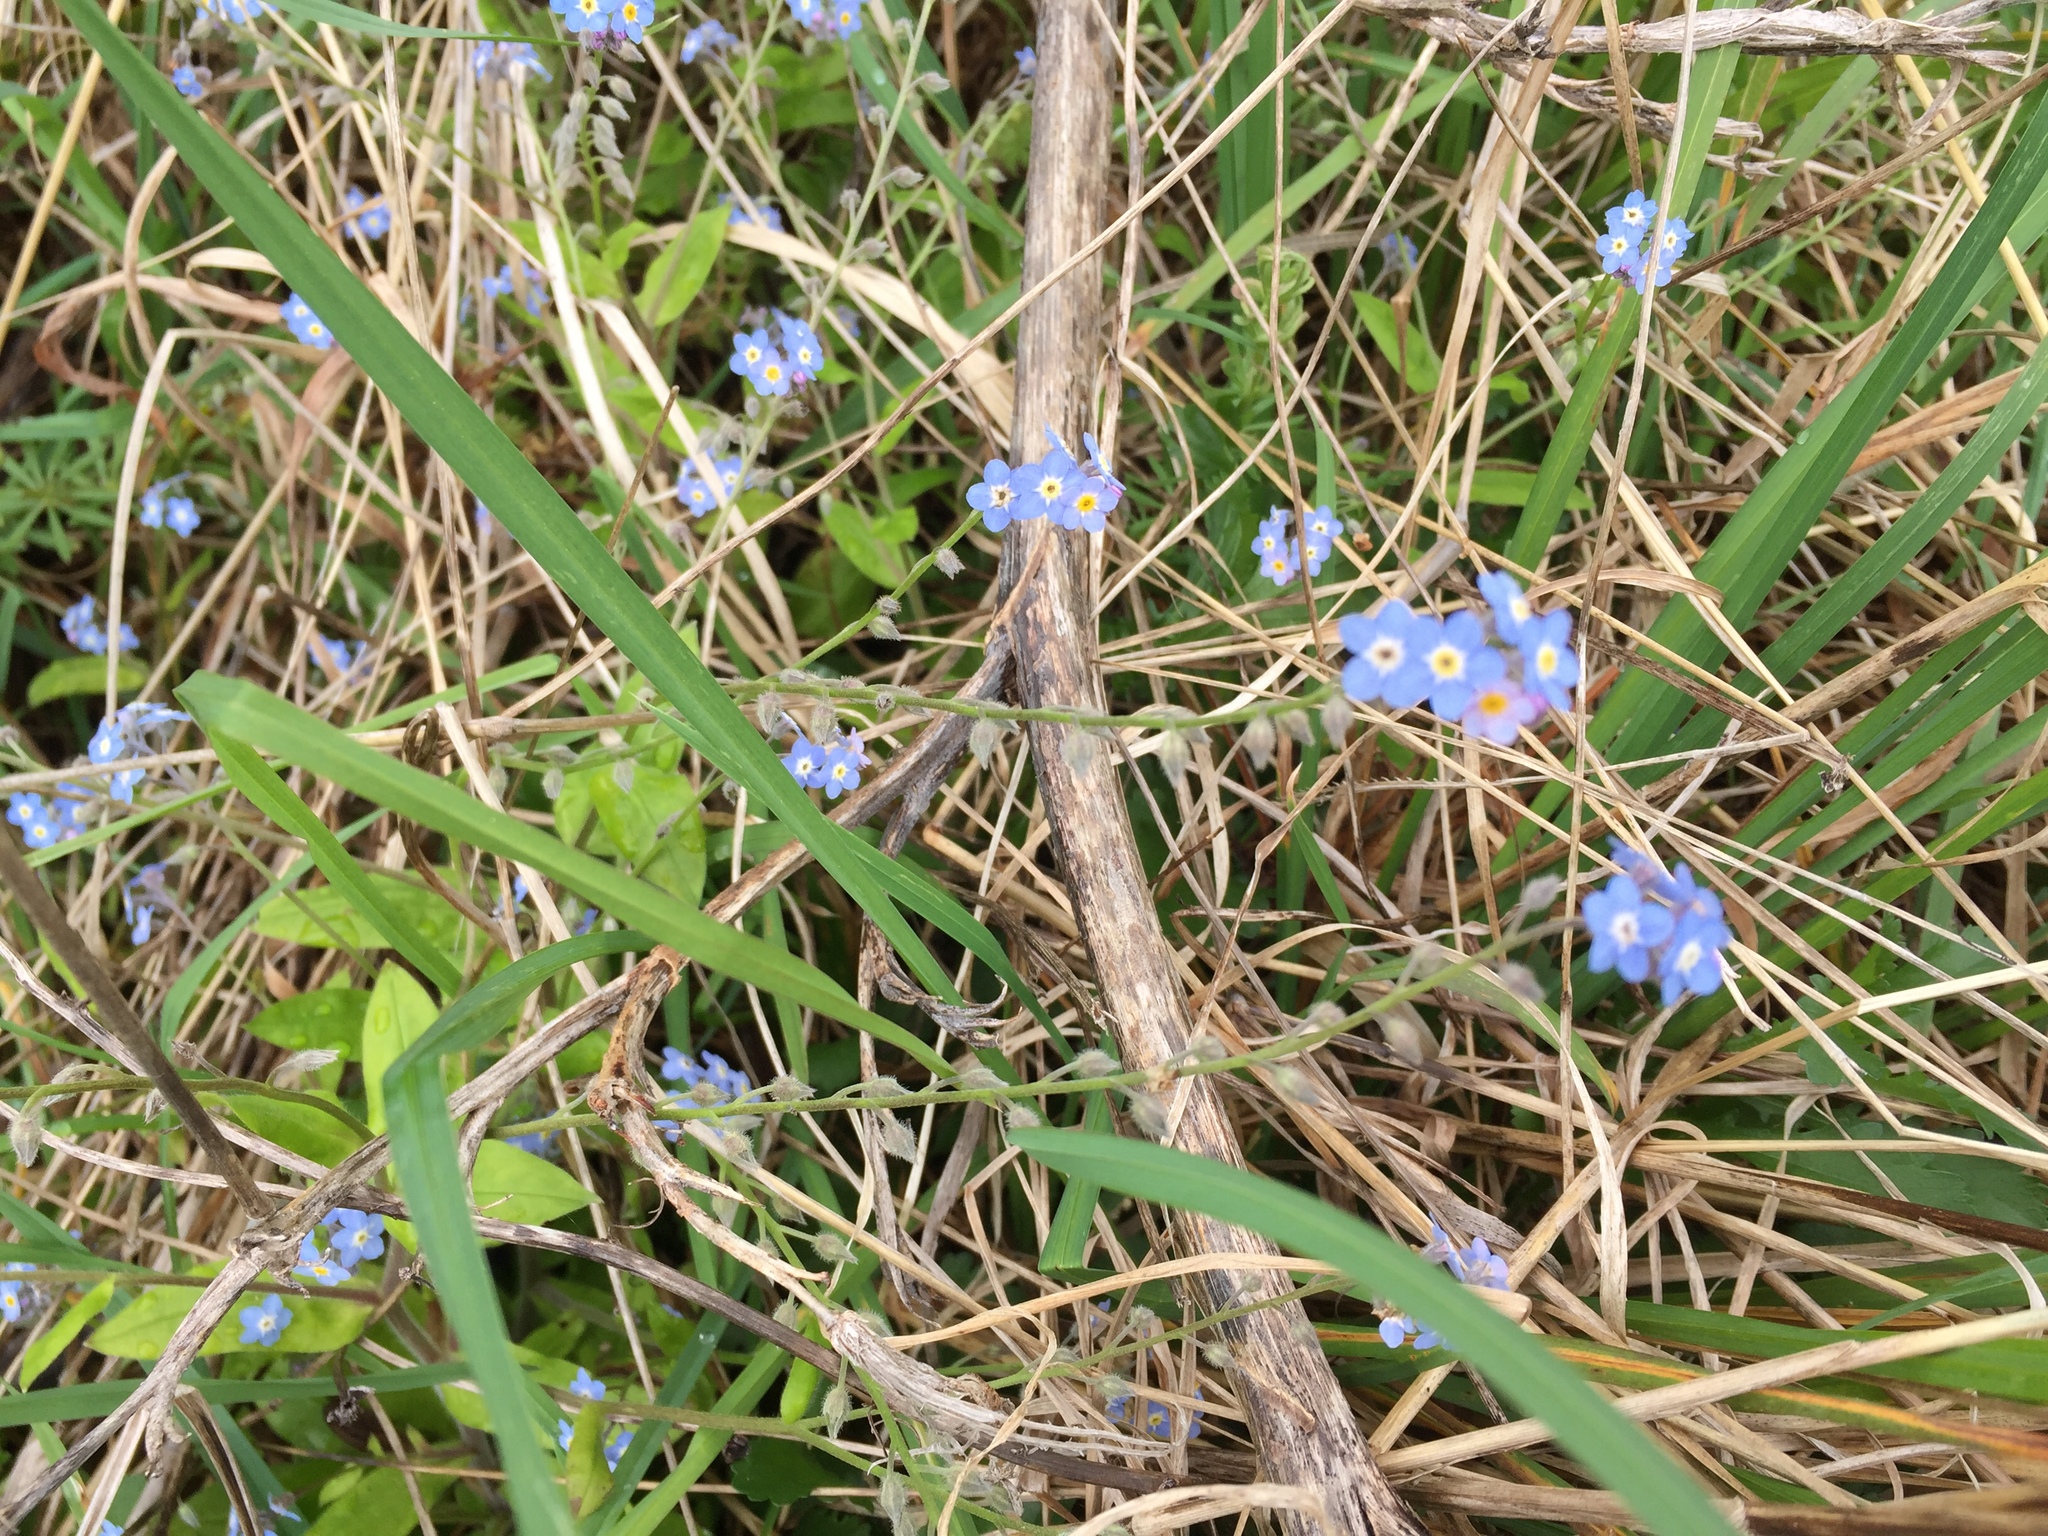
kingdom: Plantae
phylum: Tracheophyta
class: Magnoliopsida
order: Boraginales
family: Boraginaceae
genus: Myosotis
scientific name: Myosotis sylvatica
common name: Wood forget-me-not
